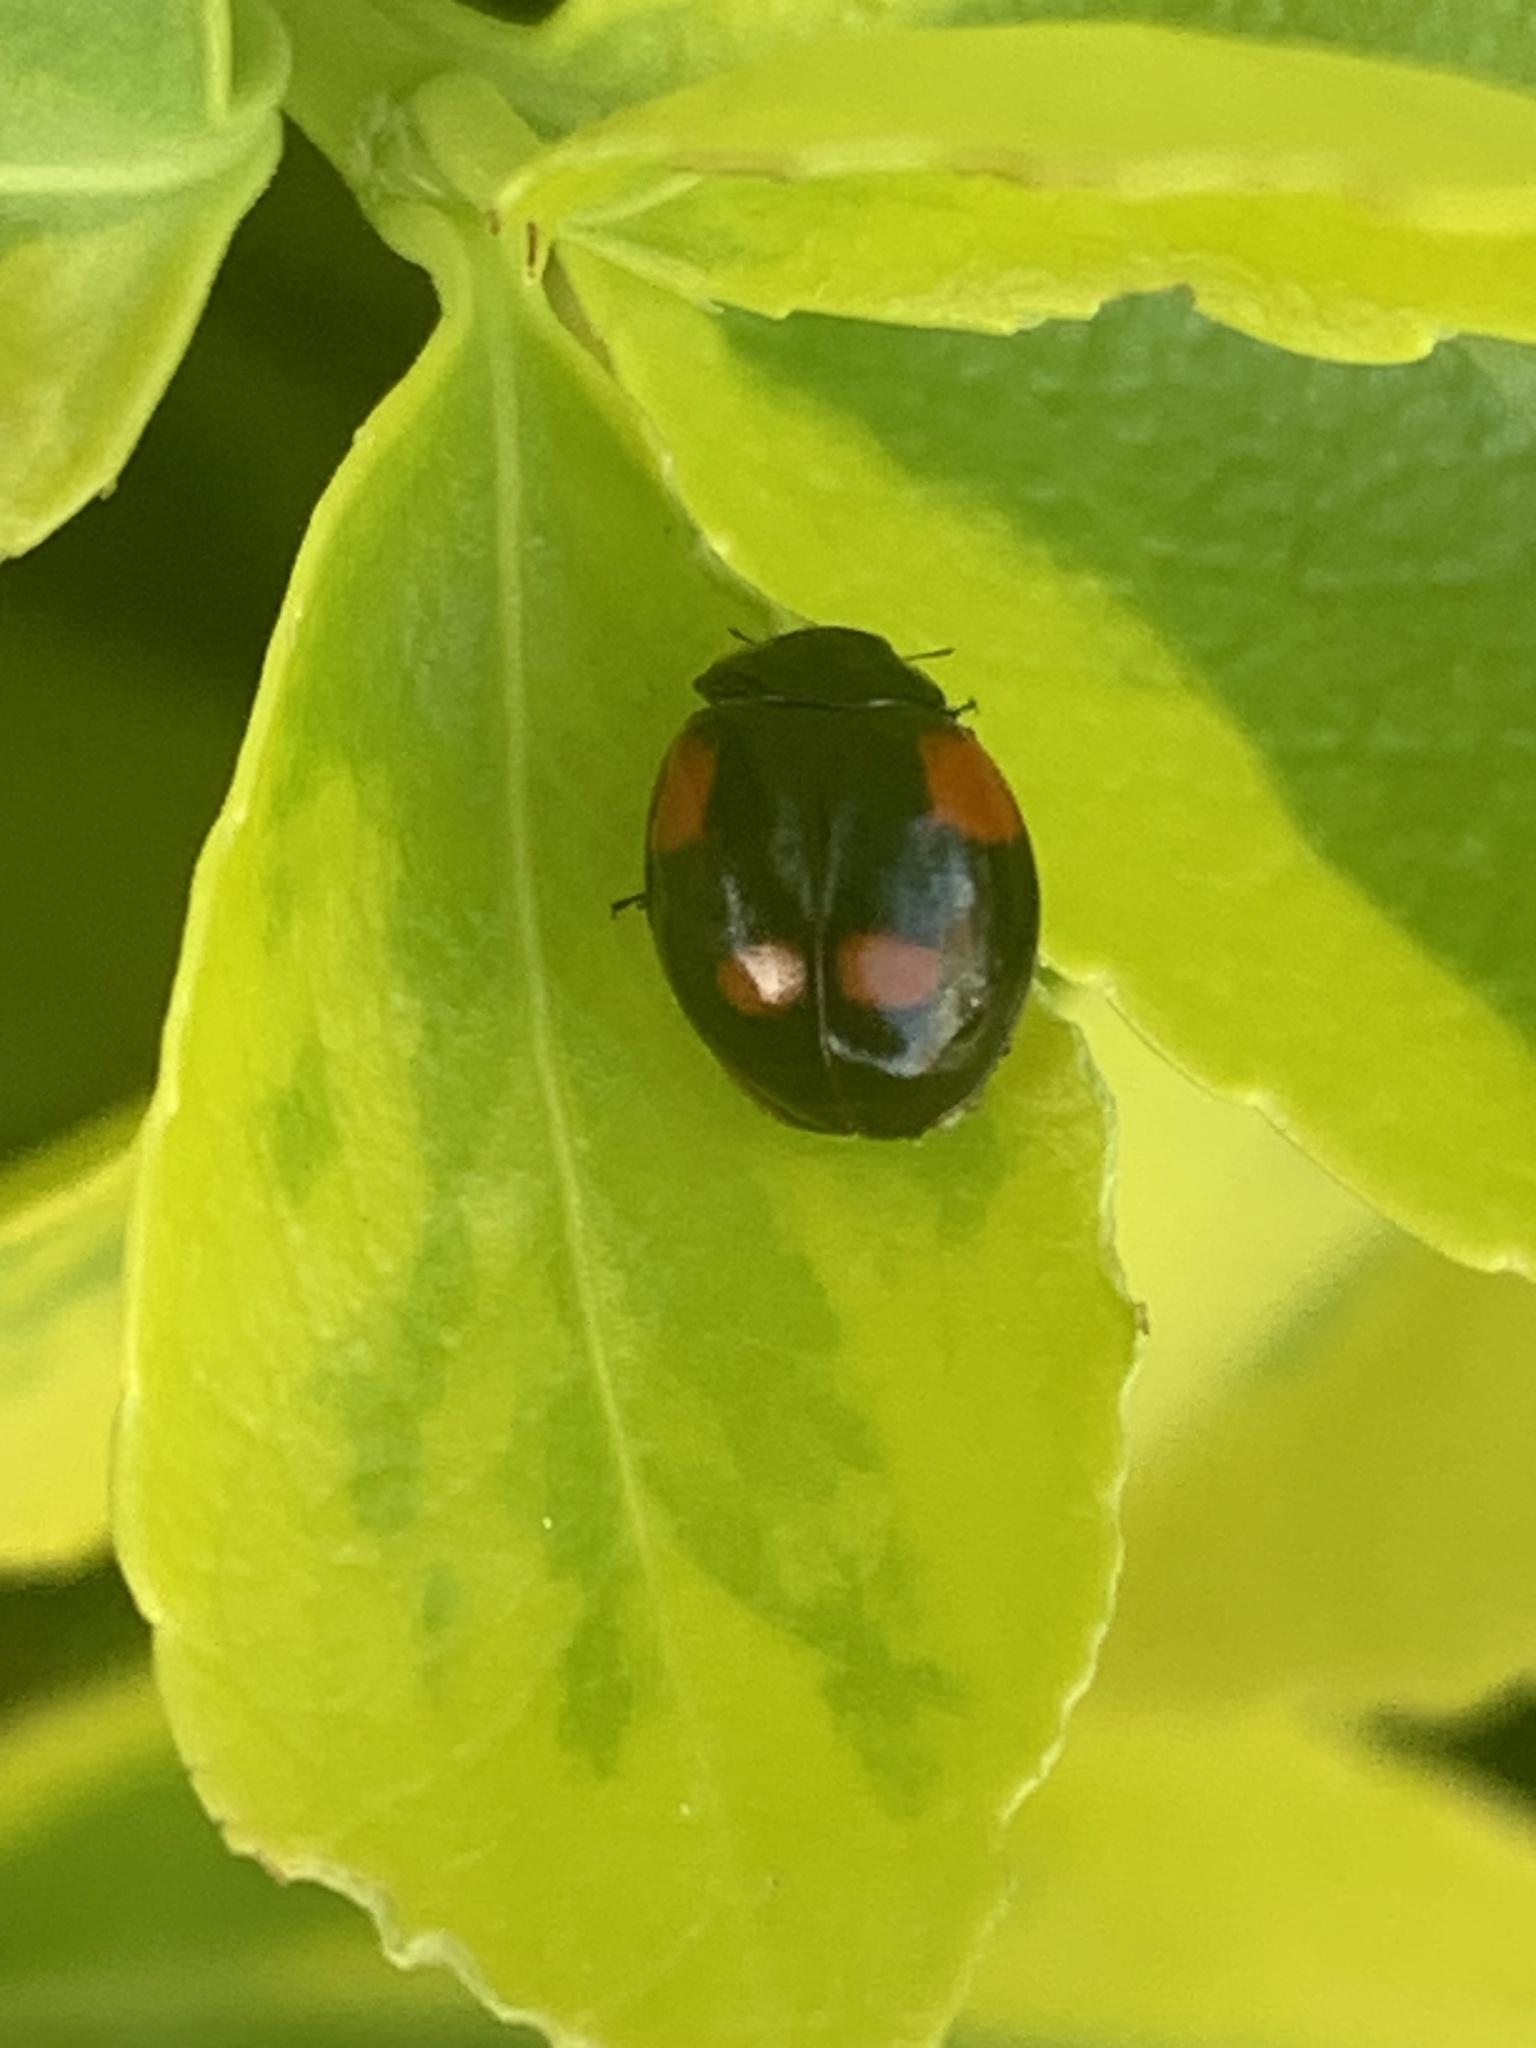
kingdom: Animalia
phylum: Arthropoda
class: Insecta
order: Coleoptera
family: Coccinellidae
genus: Adalia
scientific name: Adalia bipunctata
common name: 2-spot ladybird
